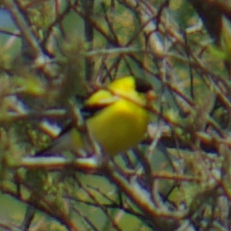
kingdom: Animalia
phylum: Chordata
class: Aves
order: Passeriformes
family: Fringillidae
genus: Spinus
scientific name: Spinus tristis
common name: American goldfinch
